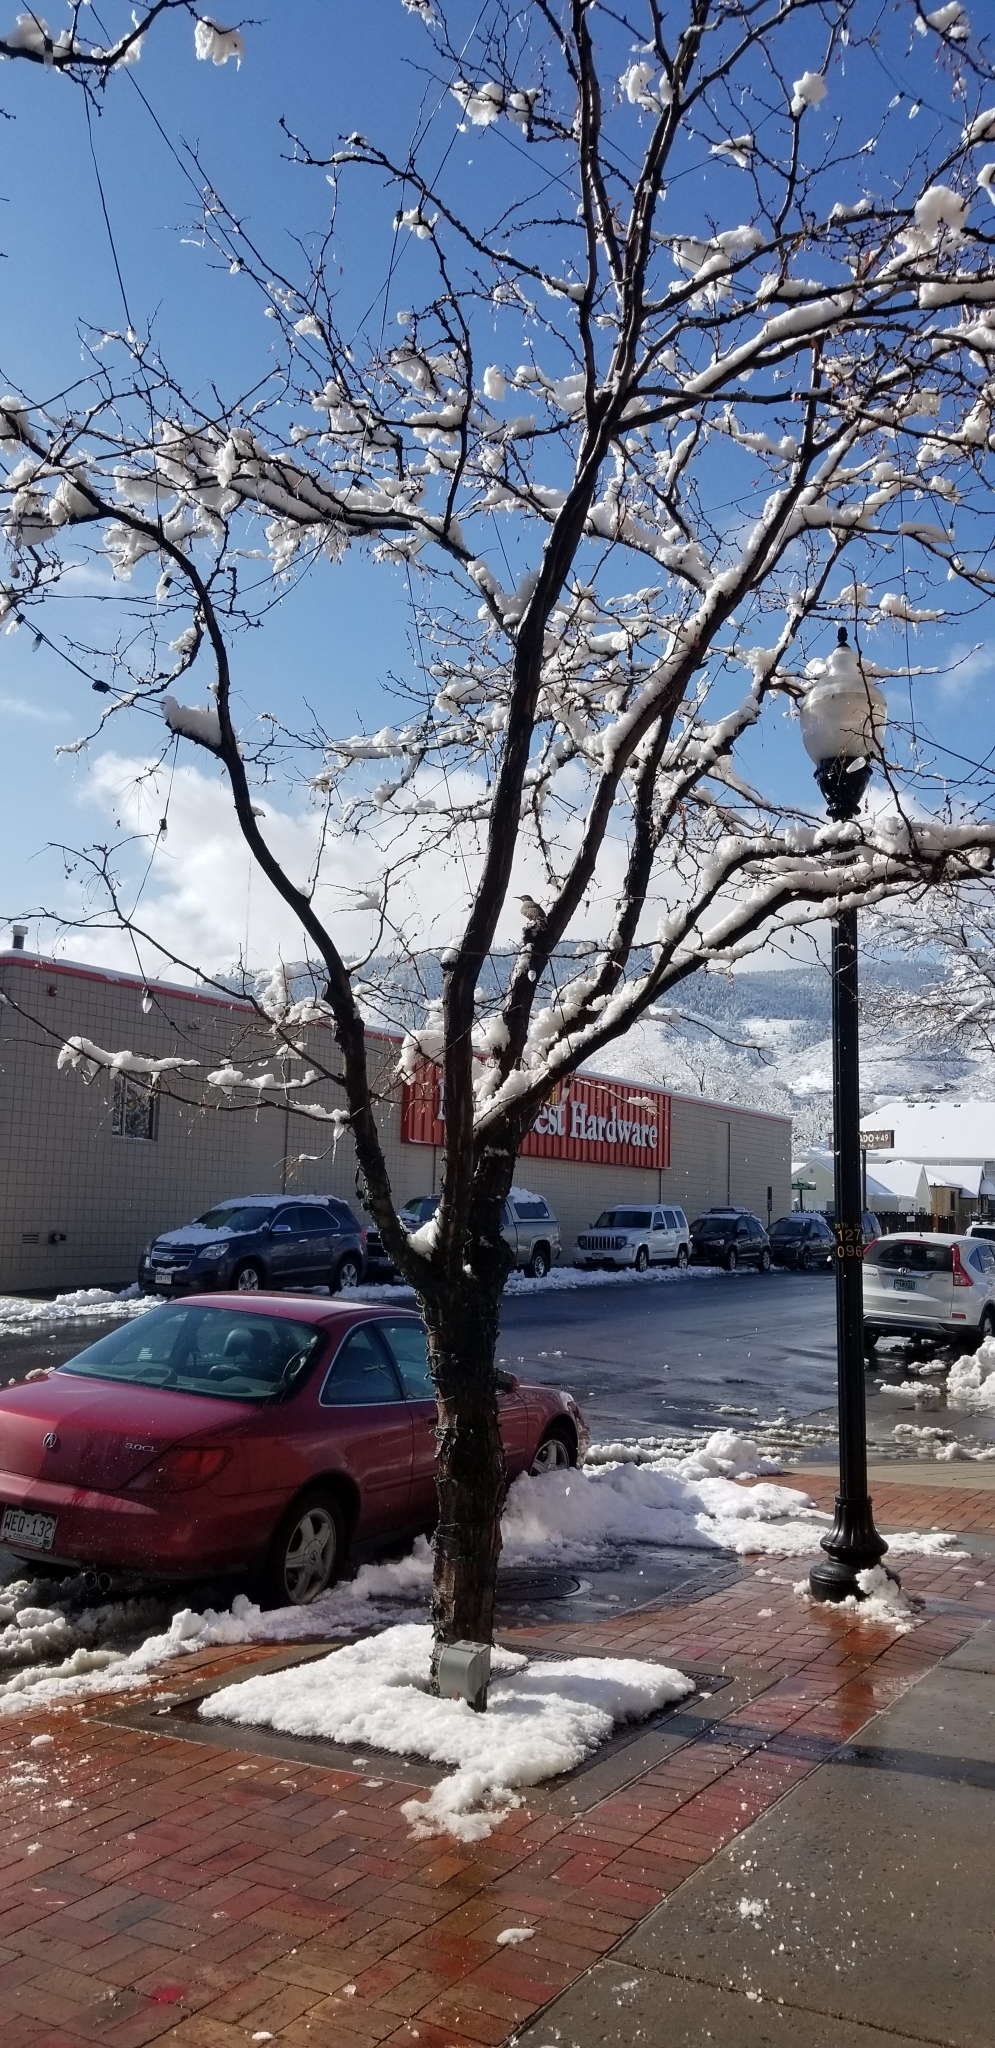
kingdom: Animalia
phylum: Chordata
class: Aves
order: Piciformes
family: Picidae
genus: Colaptes
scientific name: Colaptes auratus
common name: Northern flicker
